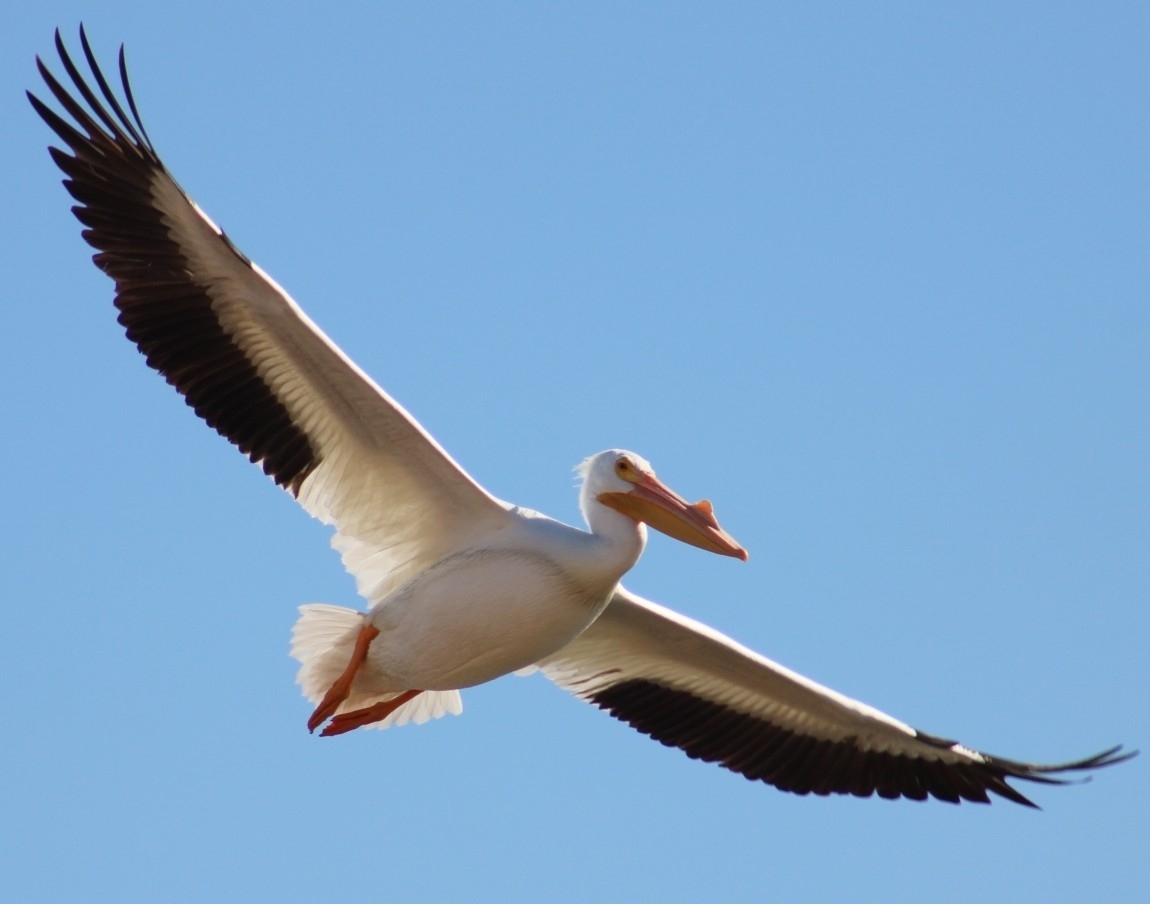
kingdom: Animalia
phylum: Chordata
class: Aves
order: Pelecaniformes
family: Pelecanidae
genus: Pelecanus
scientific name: Pelecanus erythrorhynchos
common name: American white pelican
